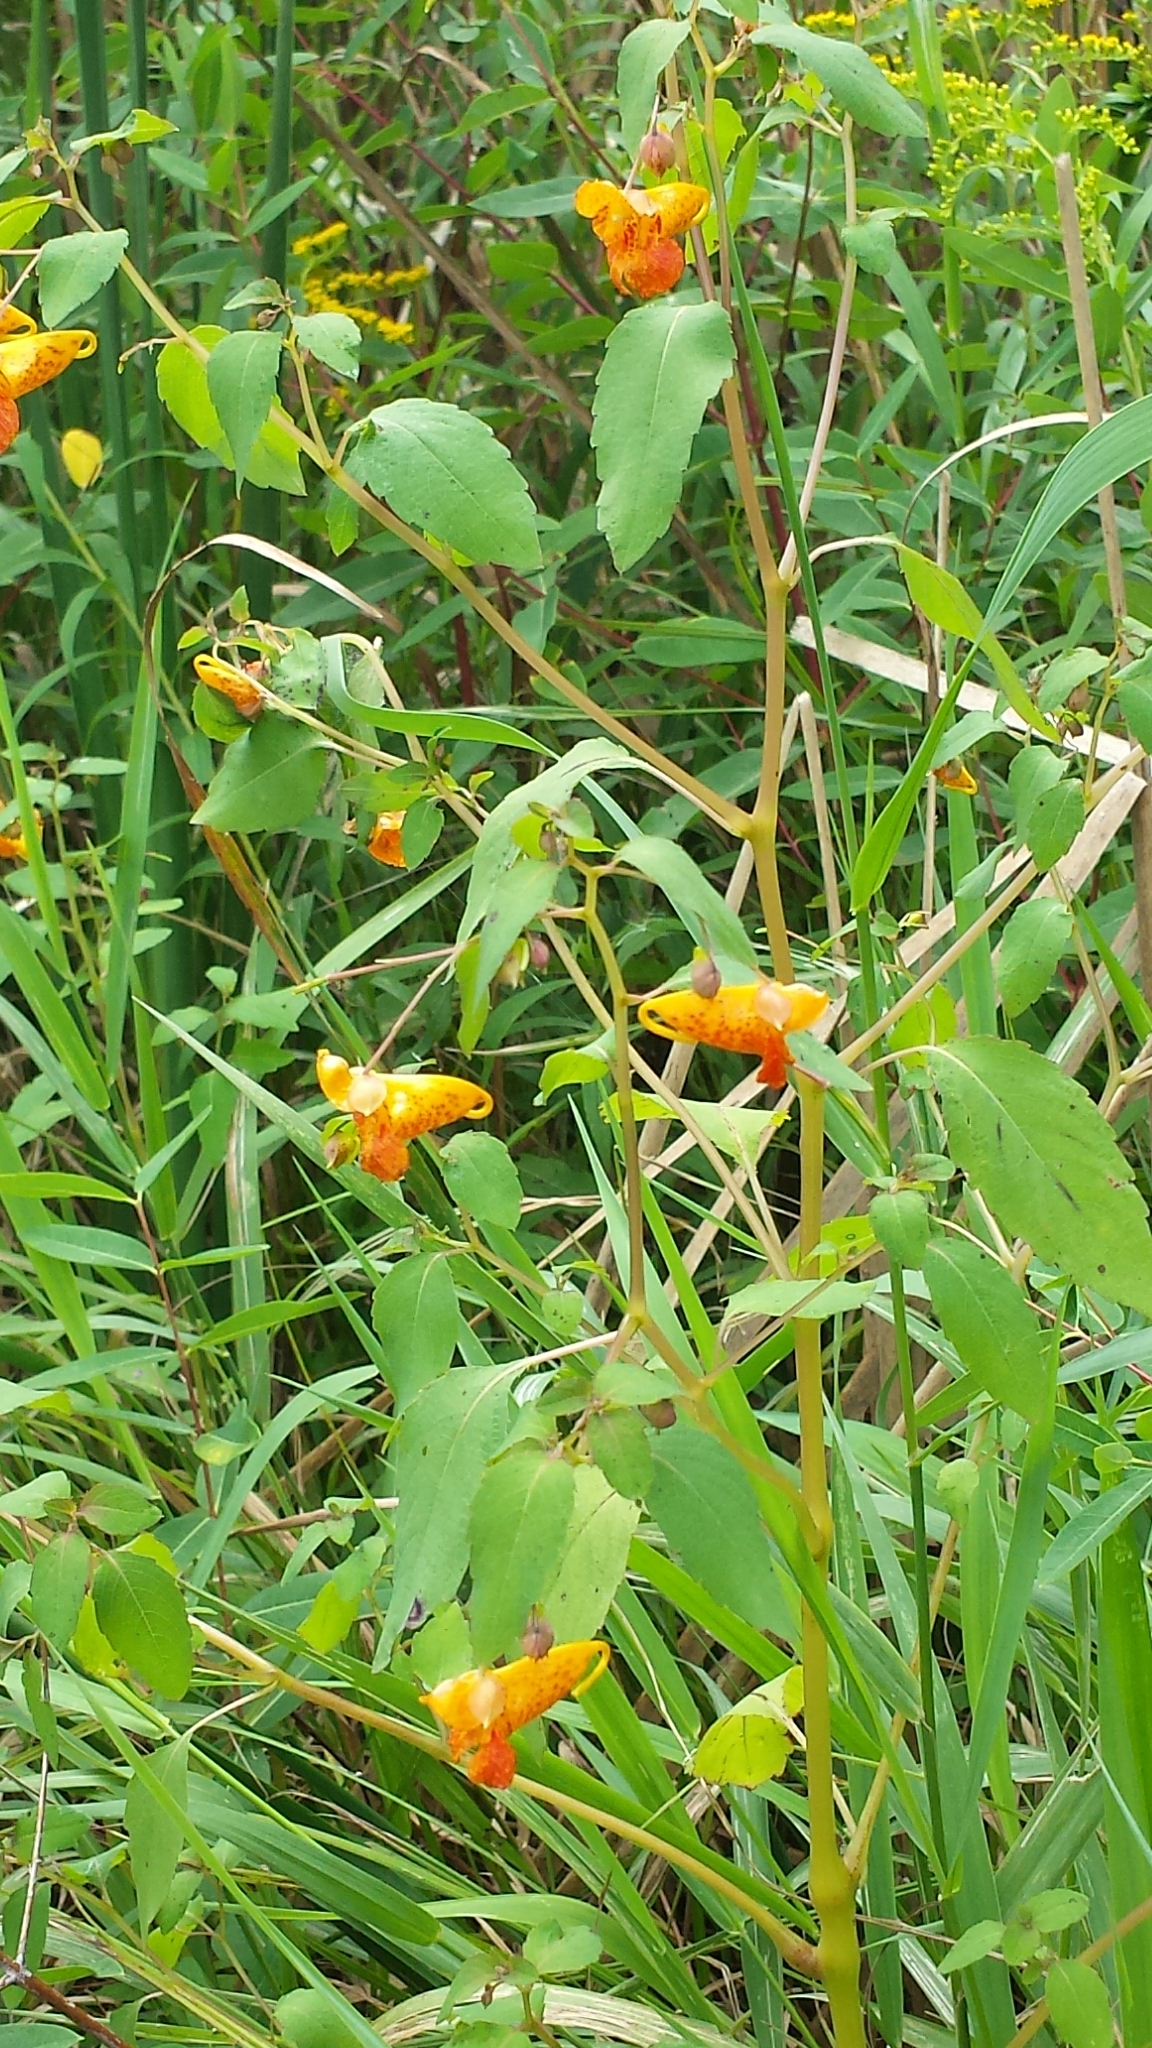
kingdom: Plantae
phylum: Tracheophyta
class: Magnoliopsida
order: Ericales
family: Balsaminaceae
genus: Impatiens
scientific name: Impatiens capensis
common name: Orange balsam
